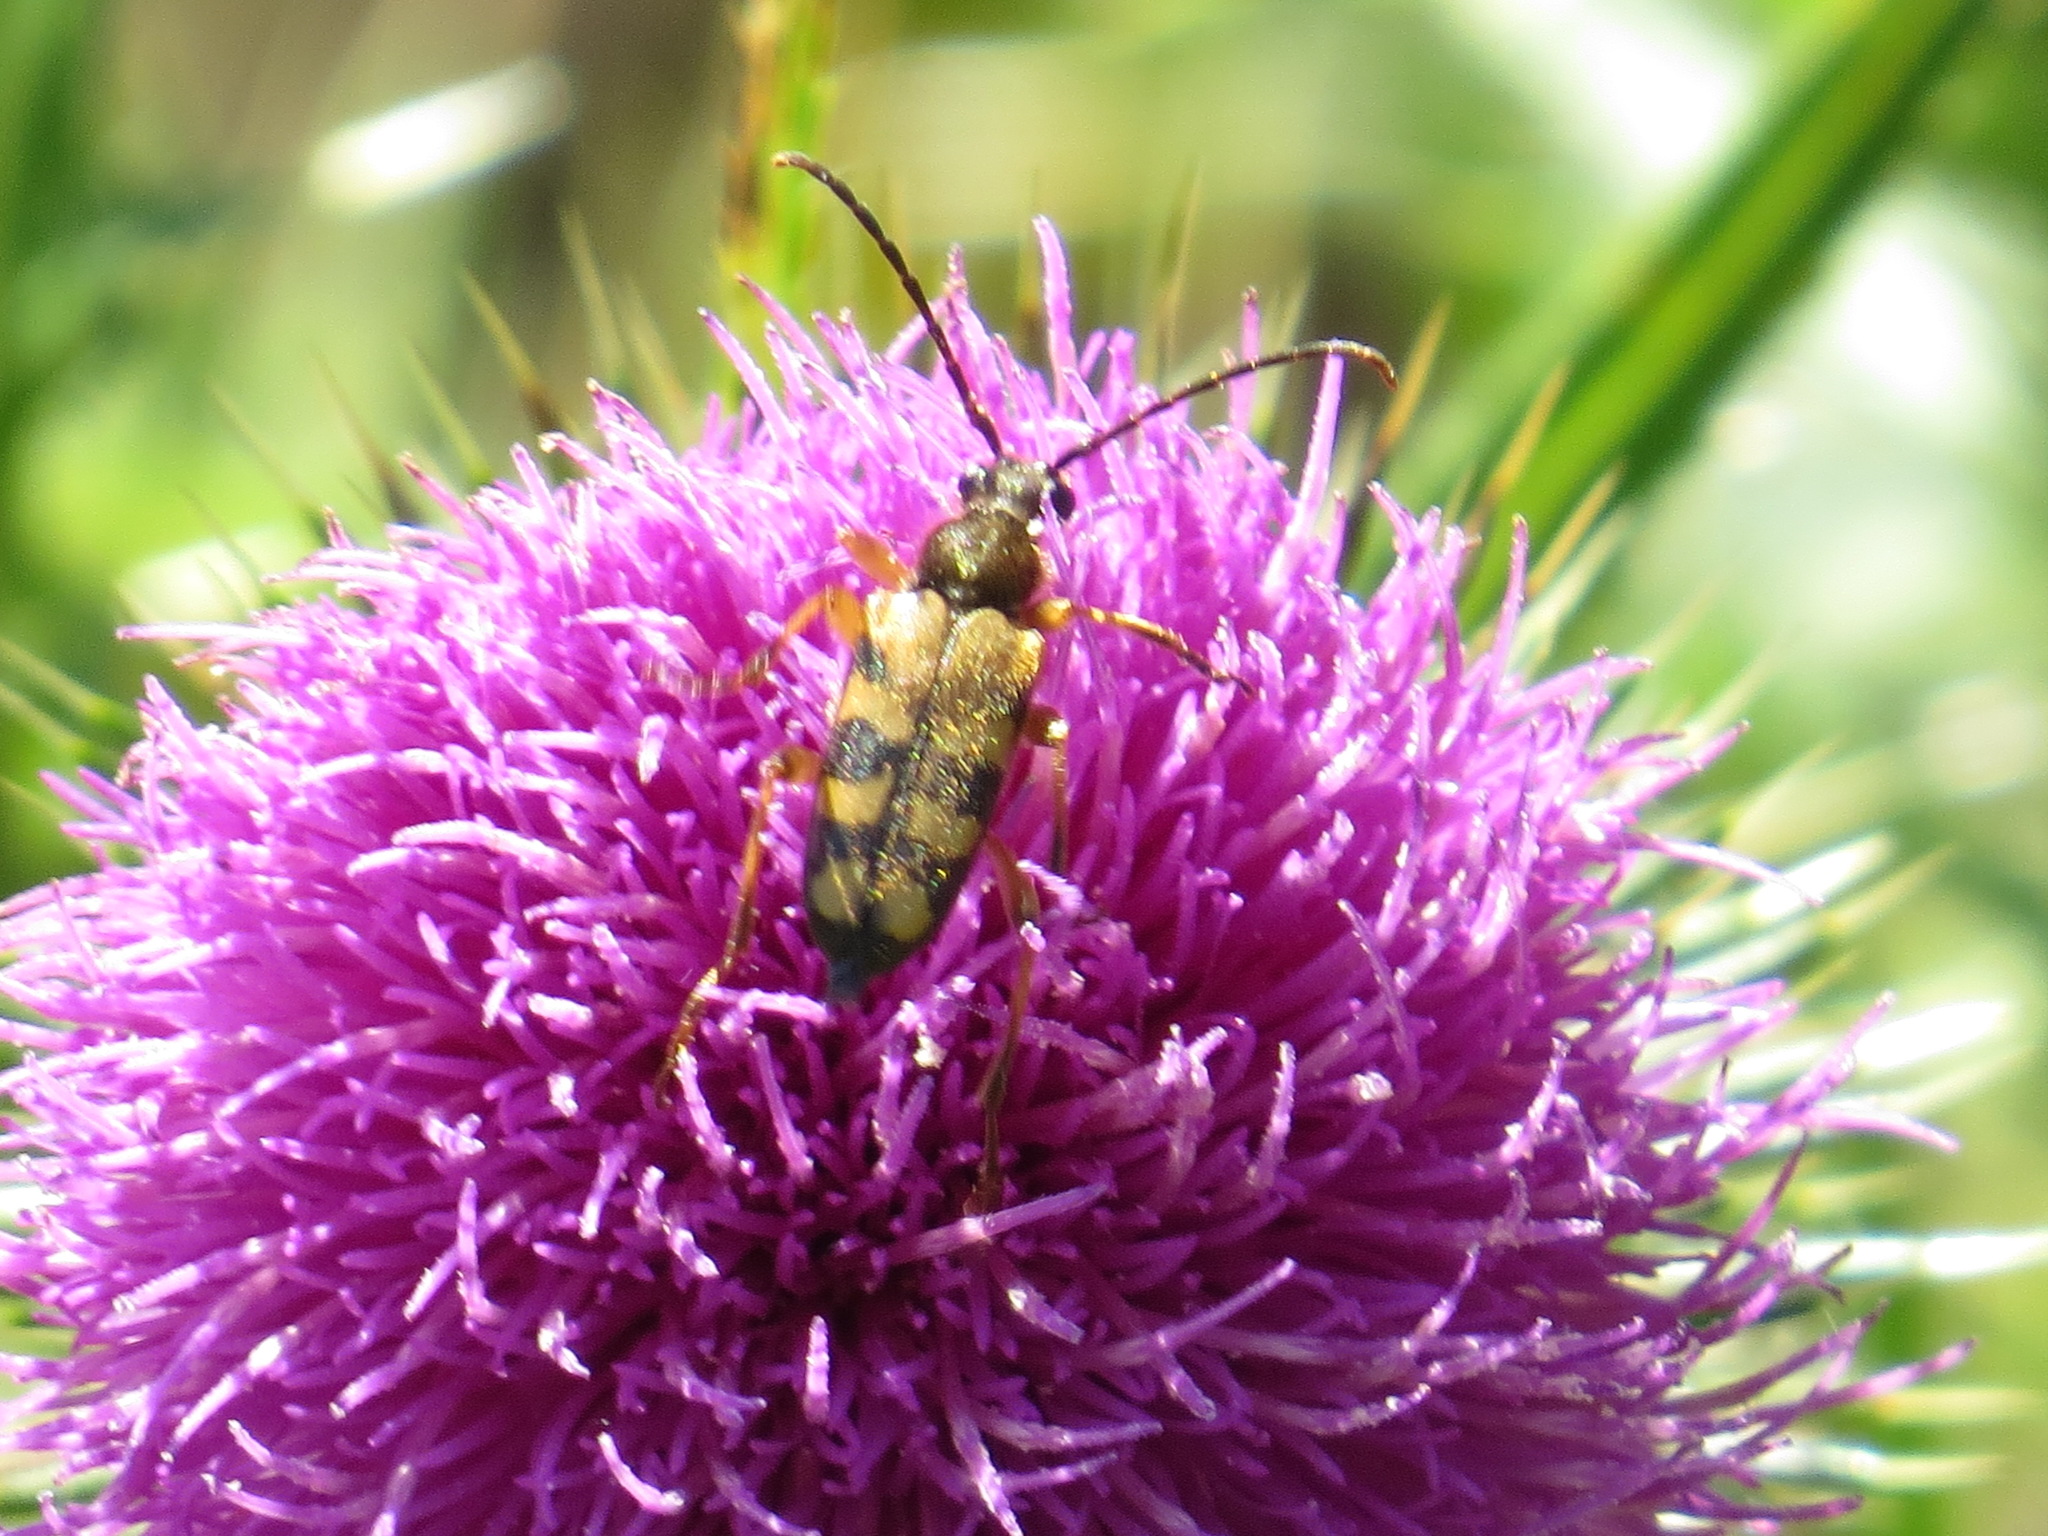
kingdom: Animalia
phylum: Arthropoda
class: Insecta
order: Coleoptera
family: Cerambycidae
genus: Xestoleptura
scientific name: Xestoleptura crassipes
